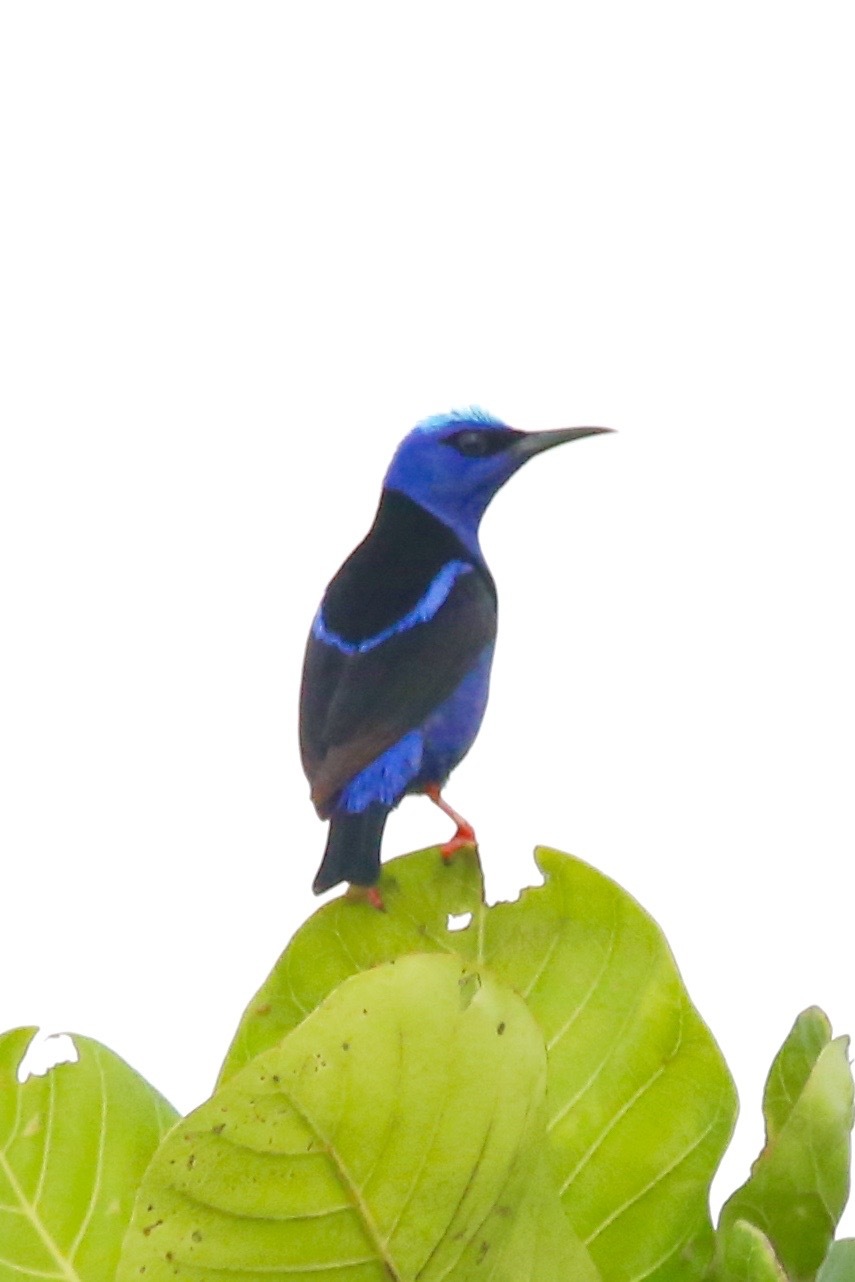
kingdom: Animalia
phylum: Chordata
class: Aves
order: Passeriformes
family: Thraupidae
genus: Cyanerpes
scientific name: Cyanerpes cyaneus
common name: Red-legged honeycreeper
